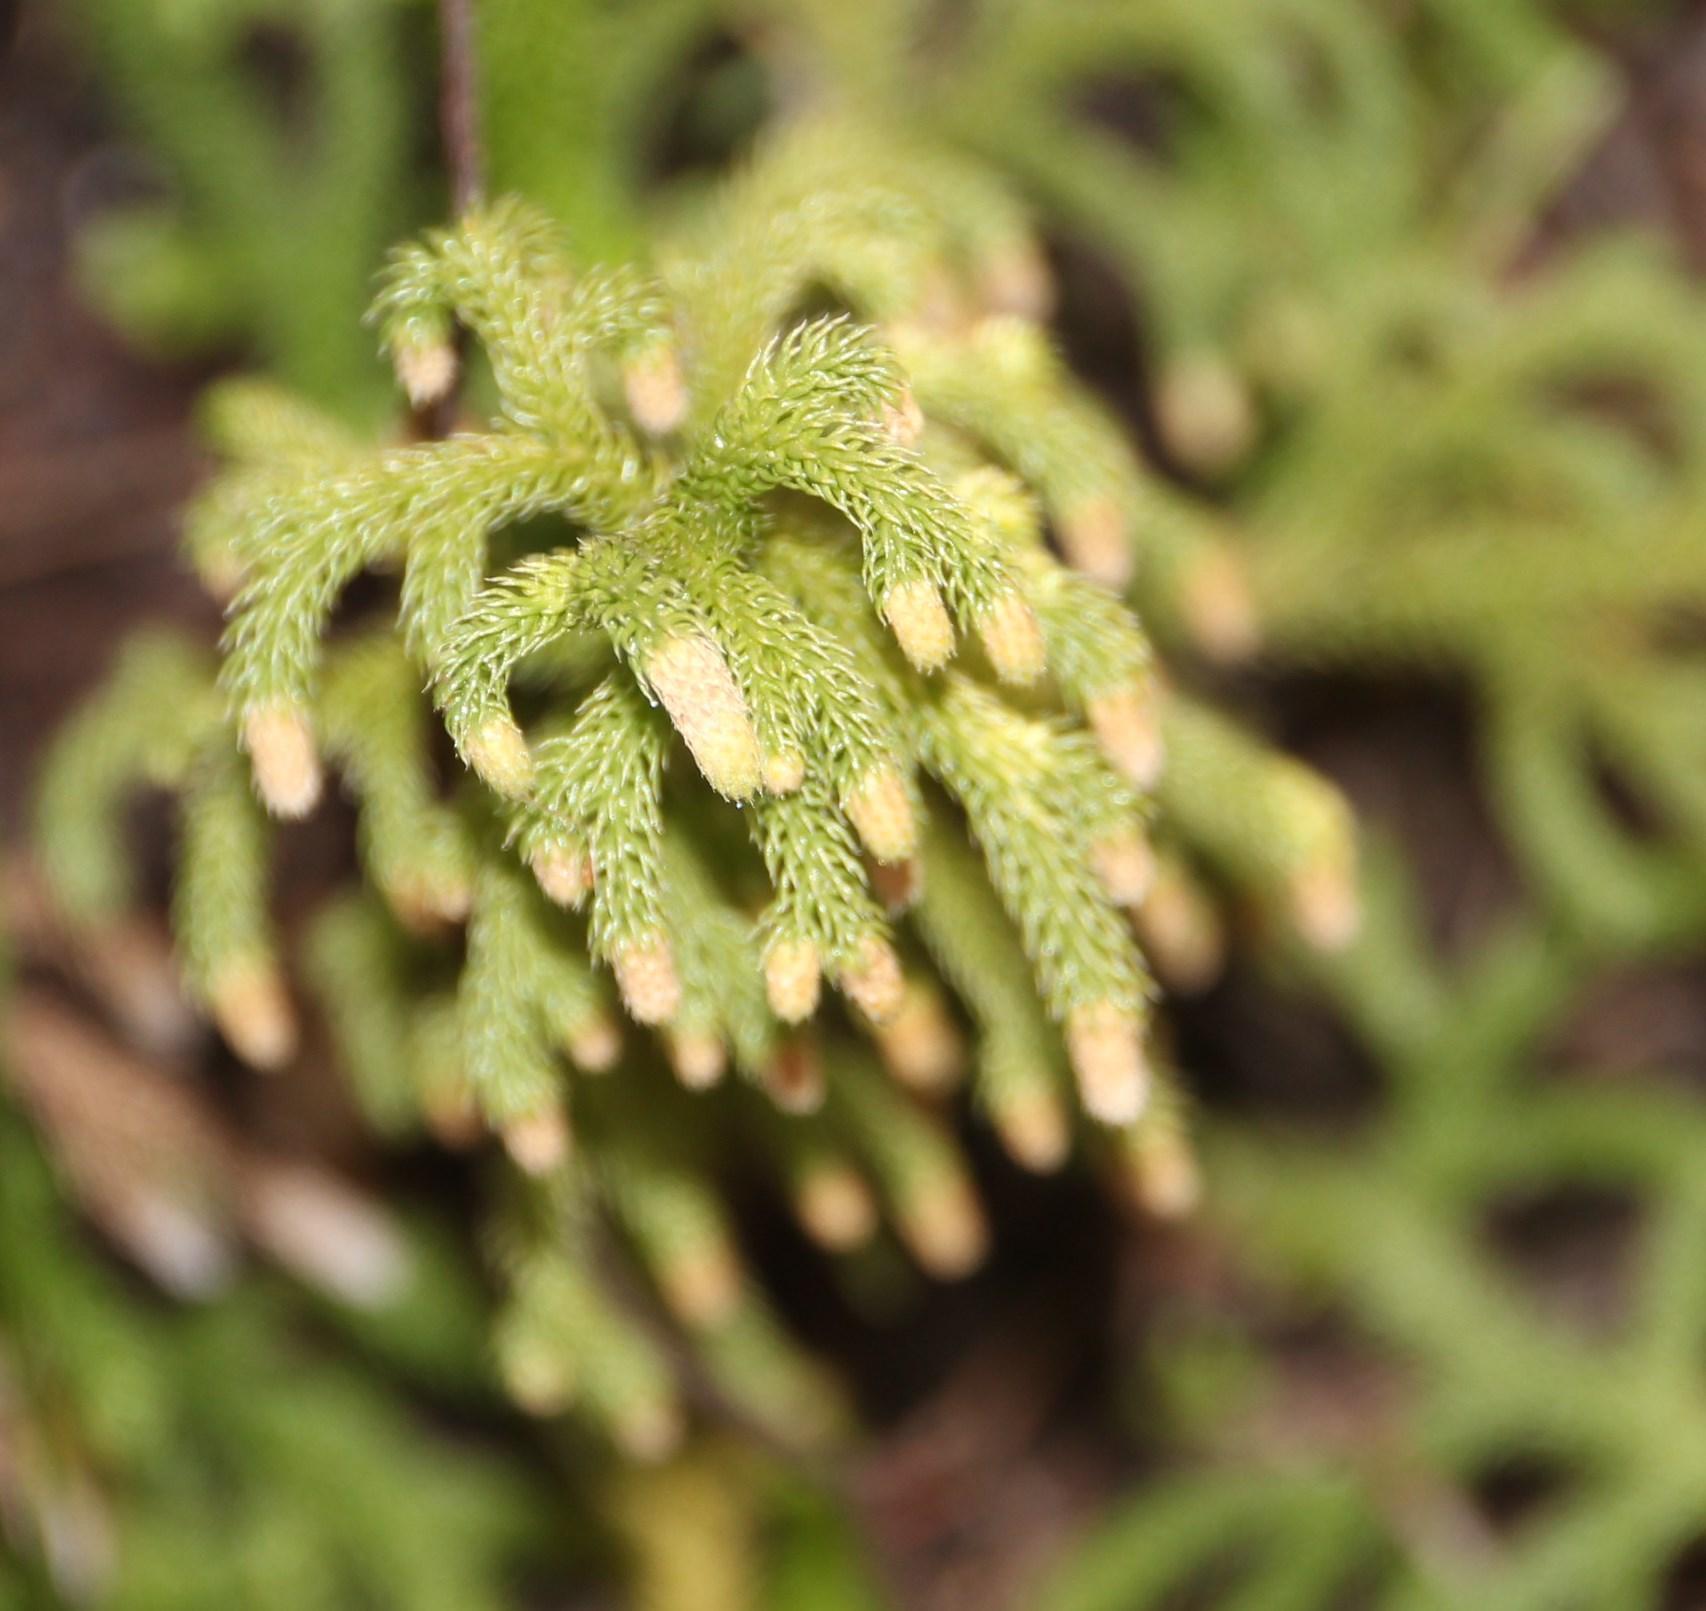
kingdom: Plantae
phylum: Tracheophyta
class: Lycopodiopsida
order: Lycopodiales
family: Lycopodiaceae
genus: Palhinhaea
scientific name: Palhinhaea cernua
